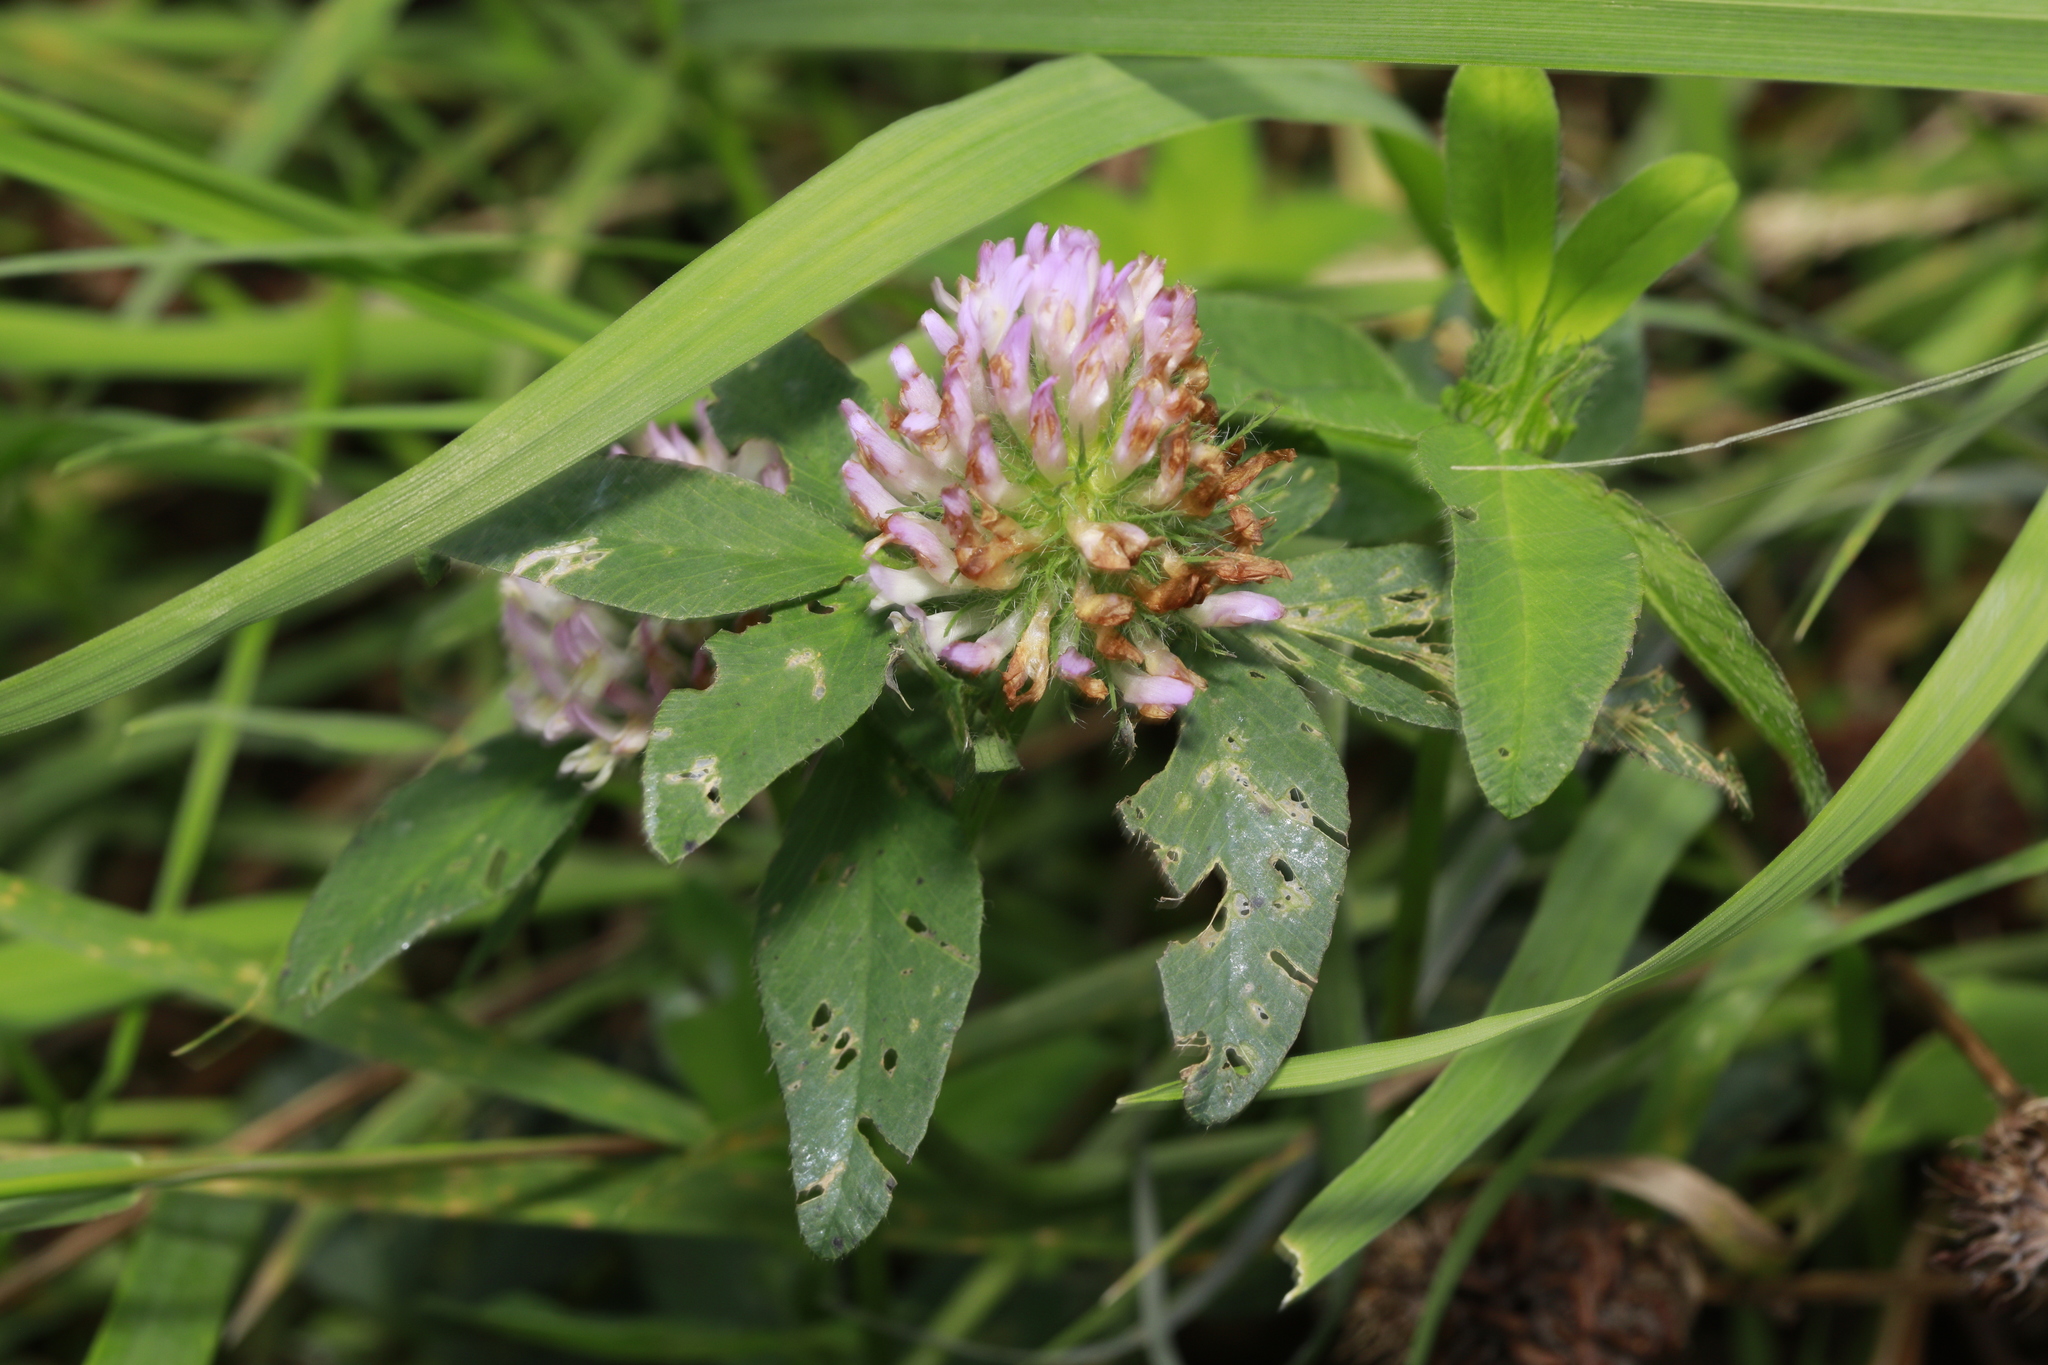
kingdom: Plantae
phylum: Tracheophyta
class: Magnoliopsida
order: Fabales
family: Fabaceae
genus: Trifolium
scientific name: Trifolium pratense
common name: Red clover
